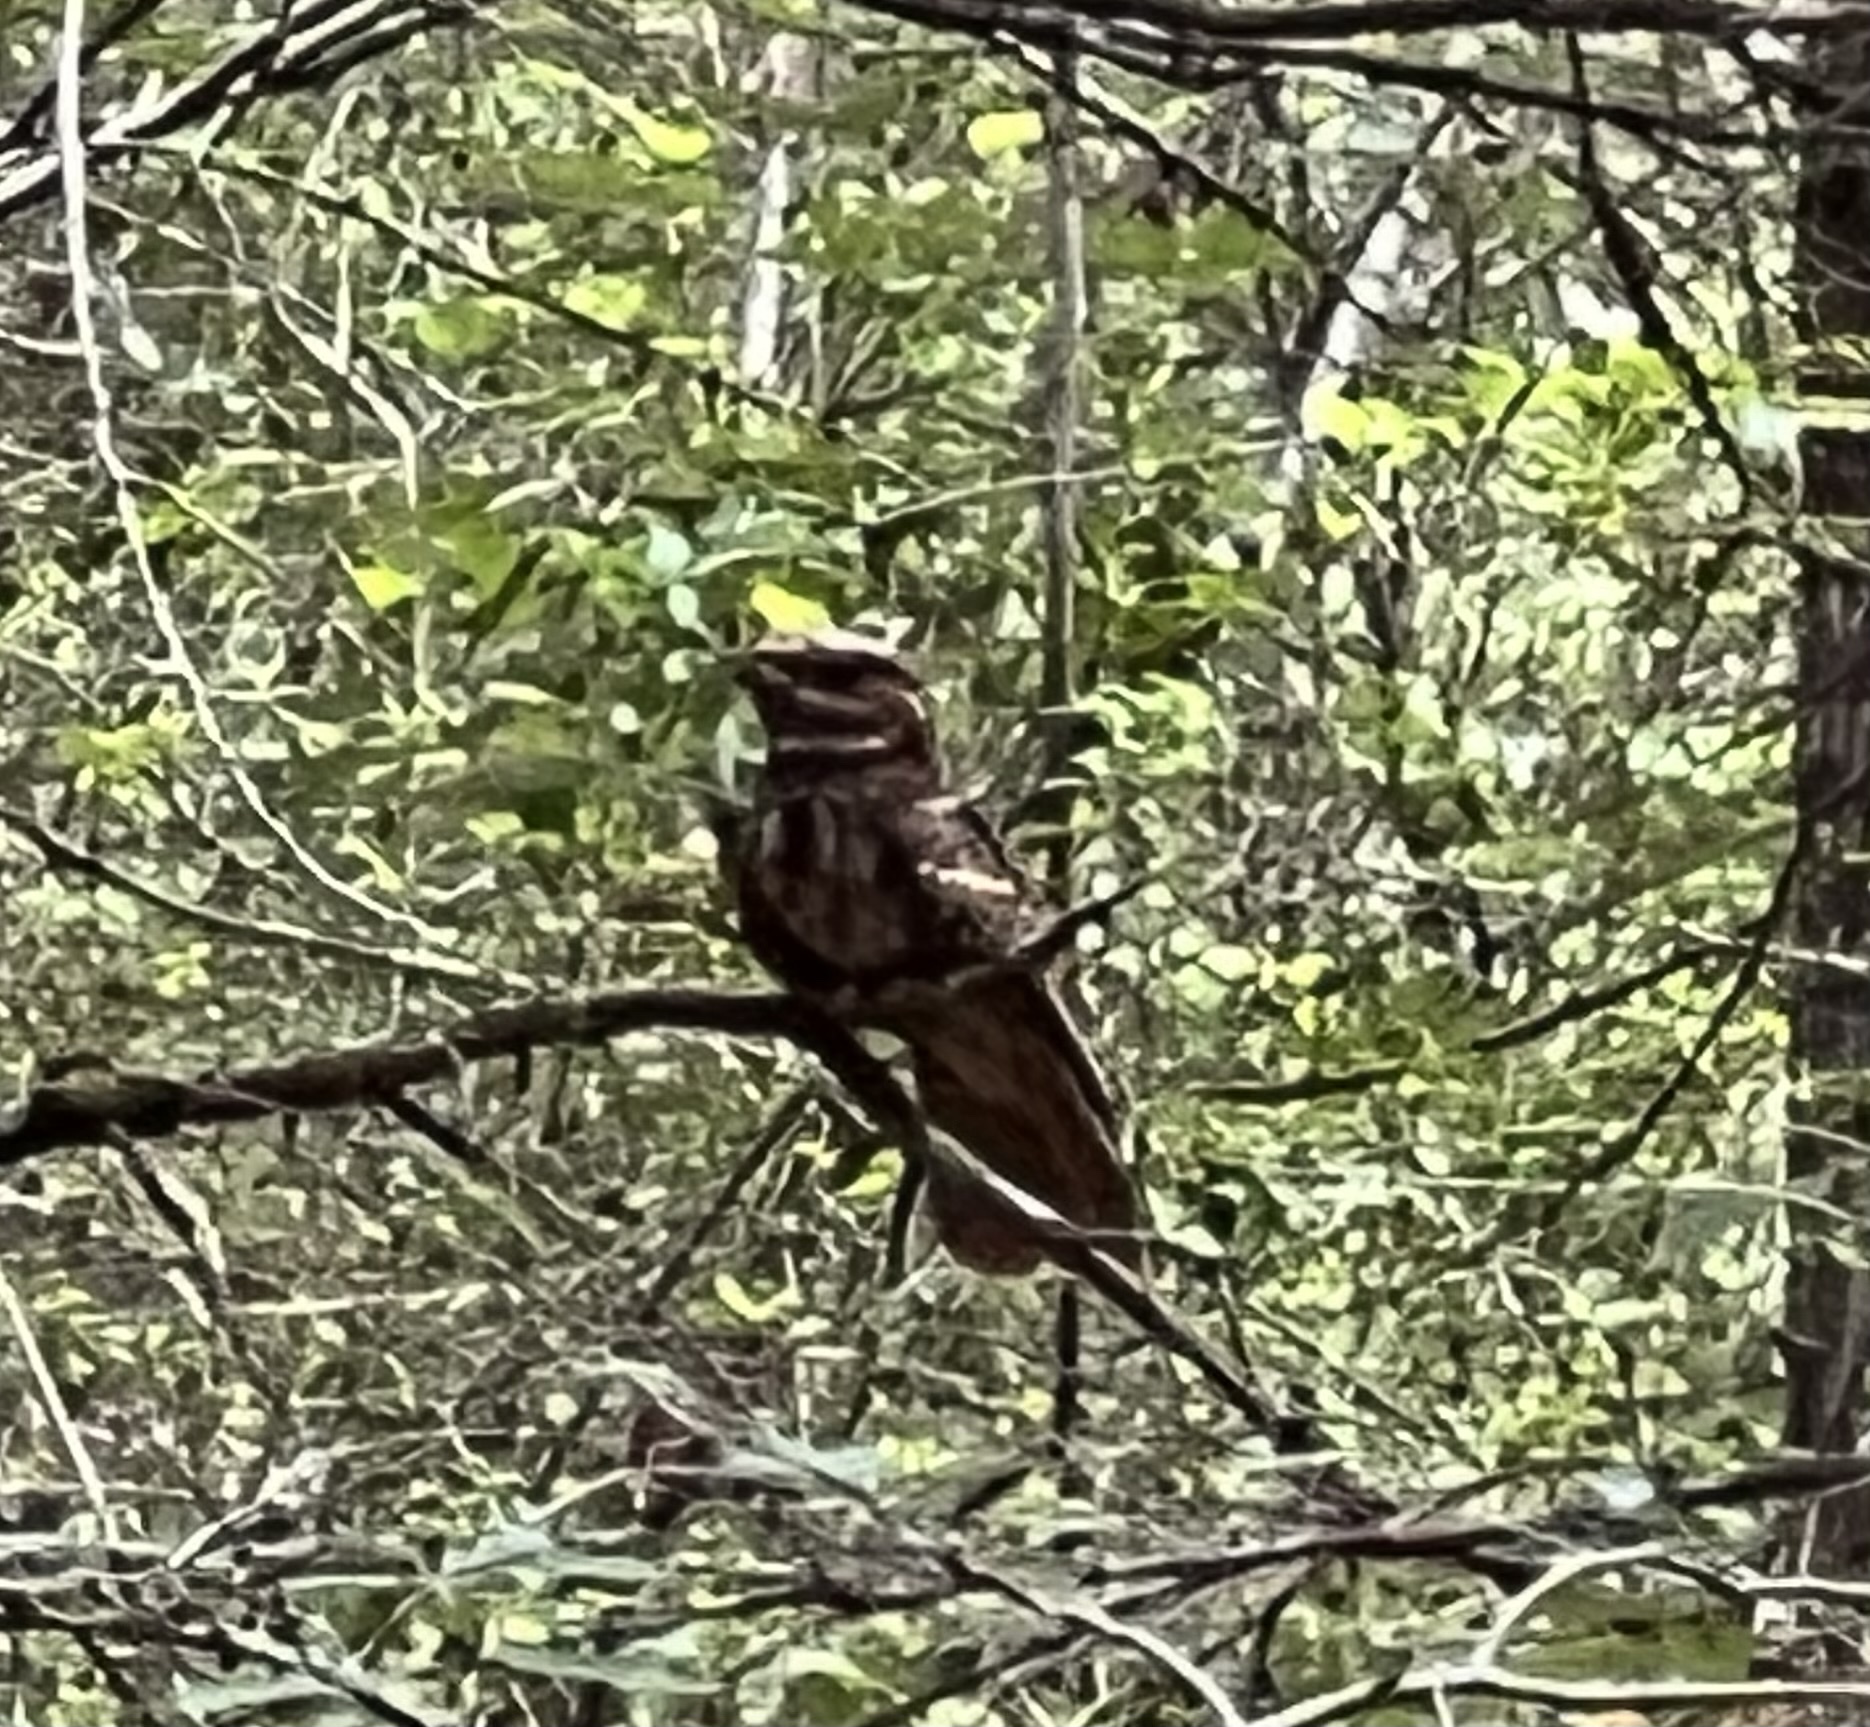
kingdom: Animalia
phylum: Chordata
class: Aves
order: Caprimulgiformes
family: Caprimulgidae
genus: Antrostomus
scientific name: Antrostomus carolinensis
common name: Chuck-will's-widow
